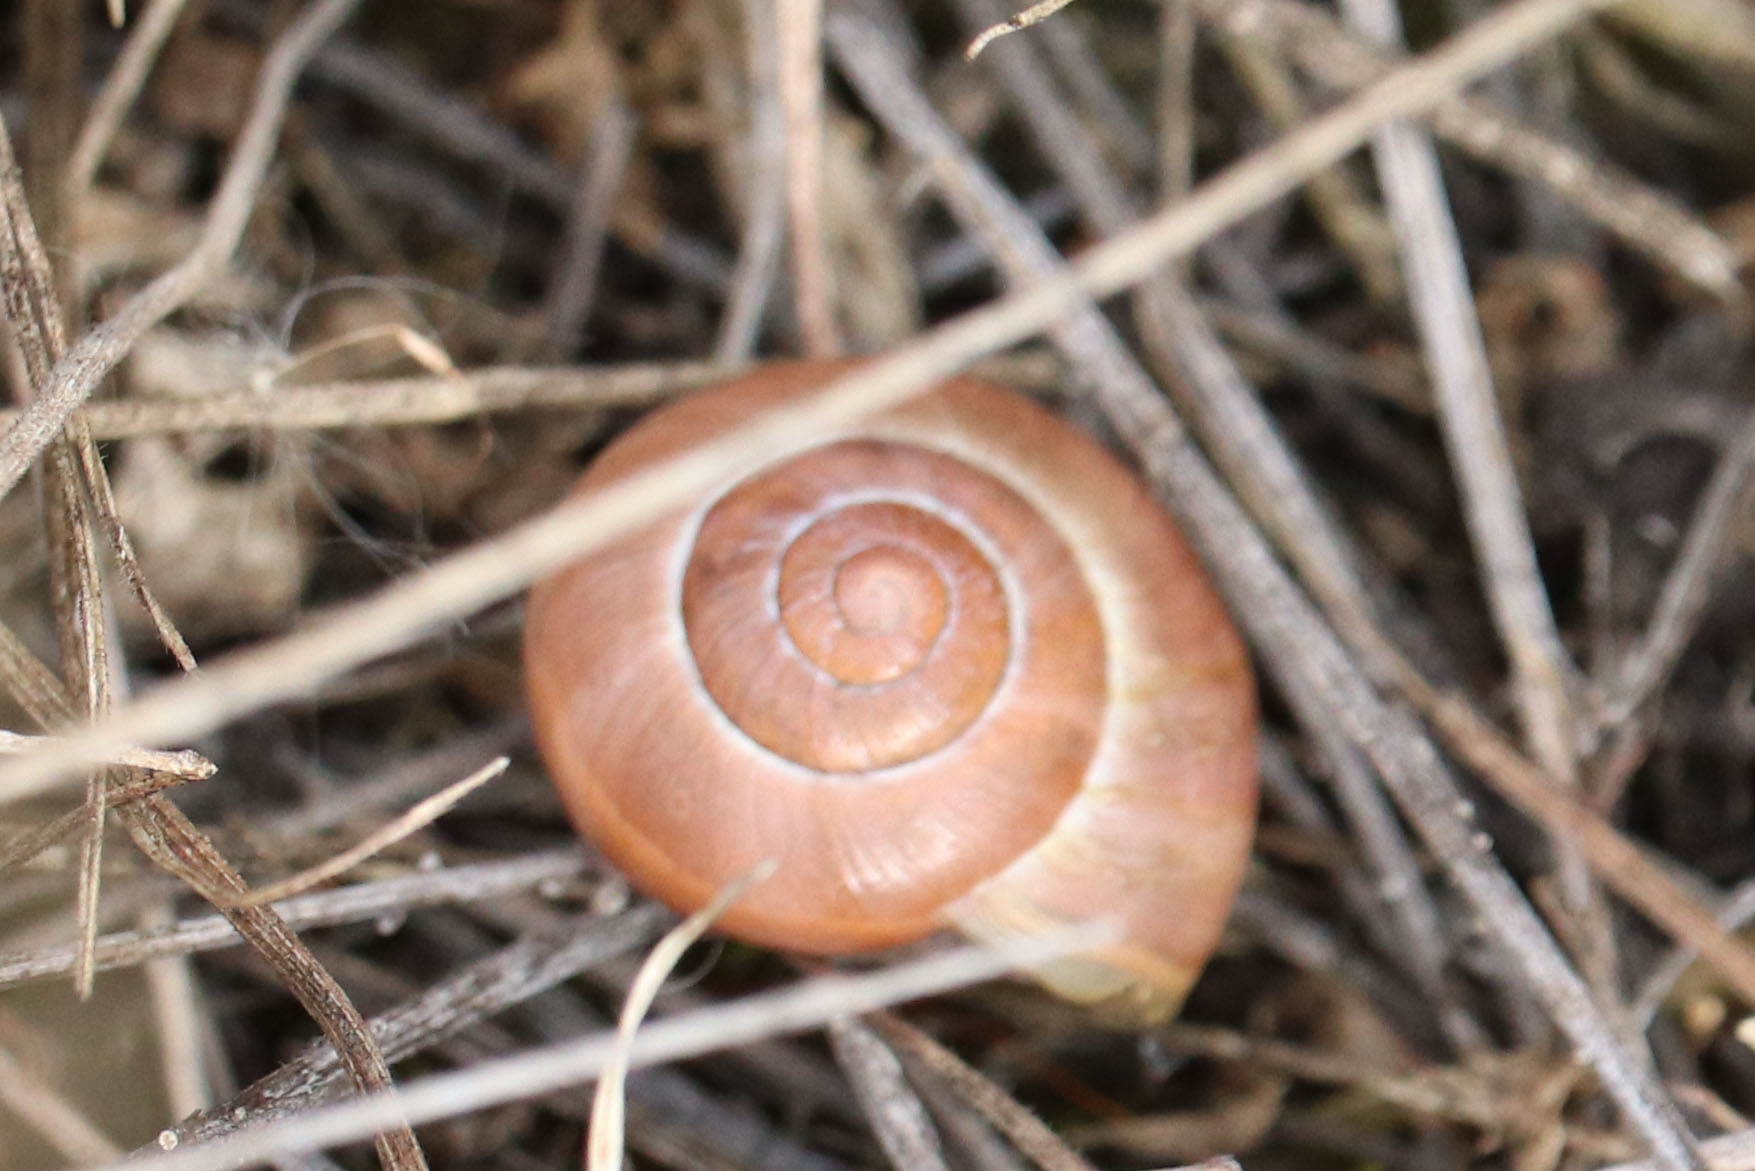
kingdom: Animalia
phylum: Mollusca
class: Gastropoda
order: Stylommatophora
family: Helicidae
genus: Cepaea
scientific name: Cepaea nemoralis
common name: Grovesnail
